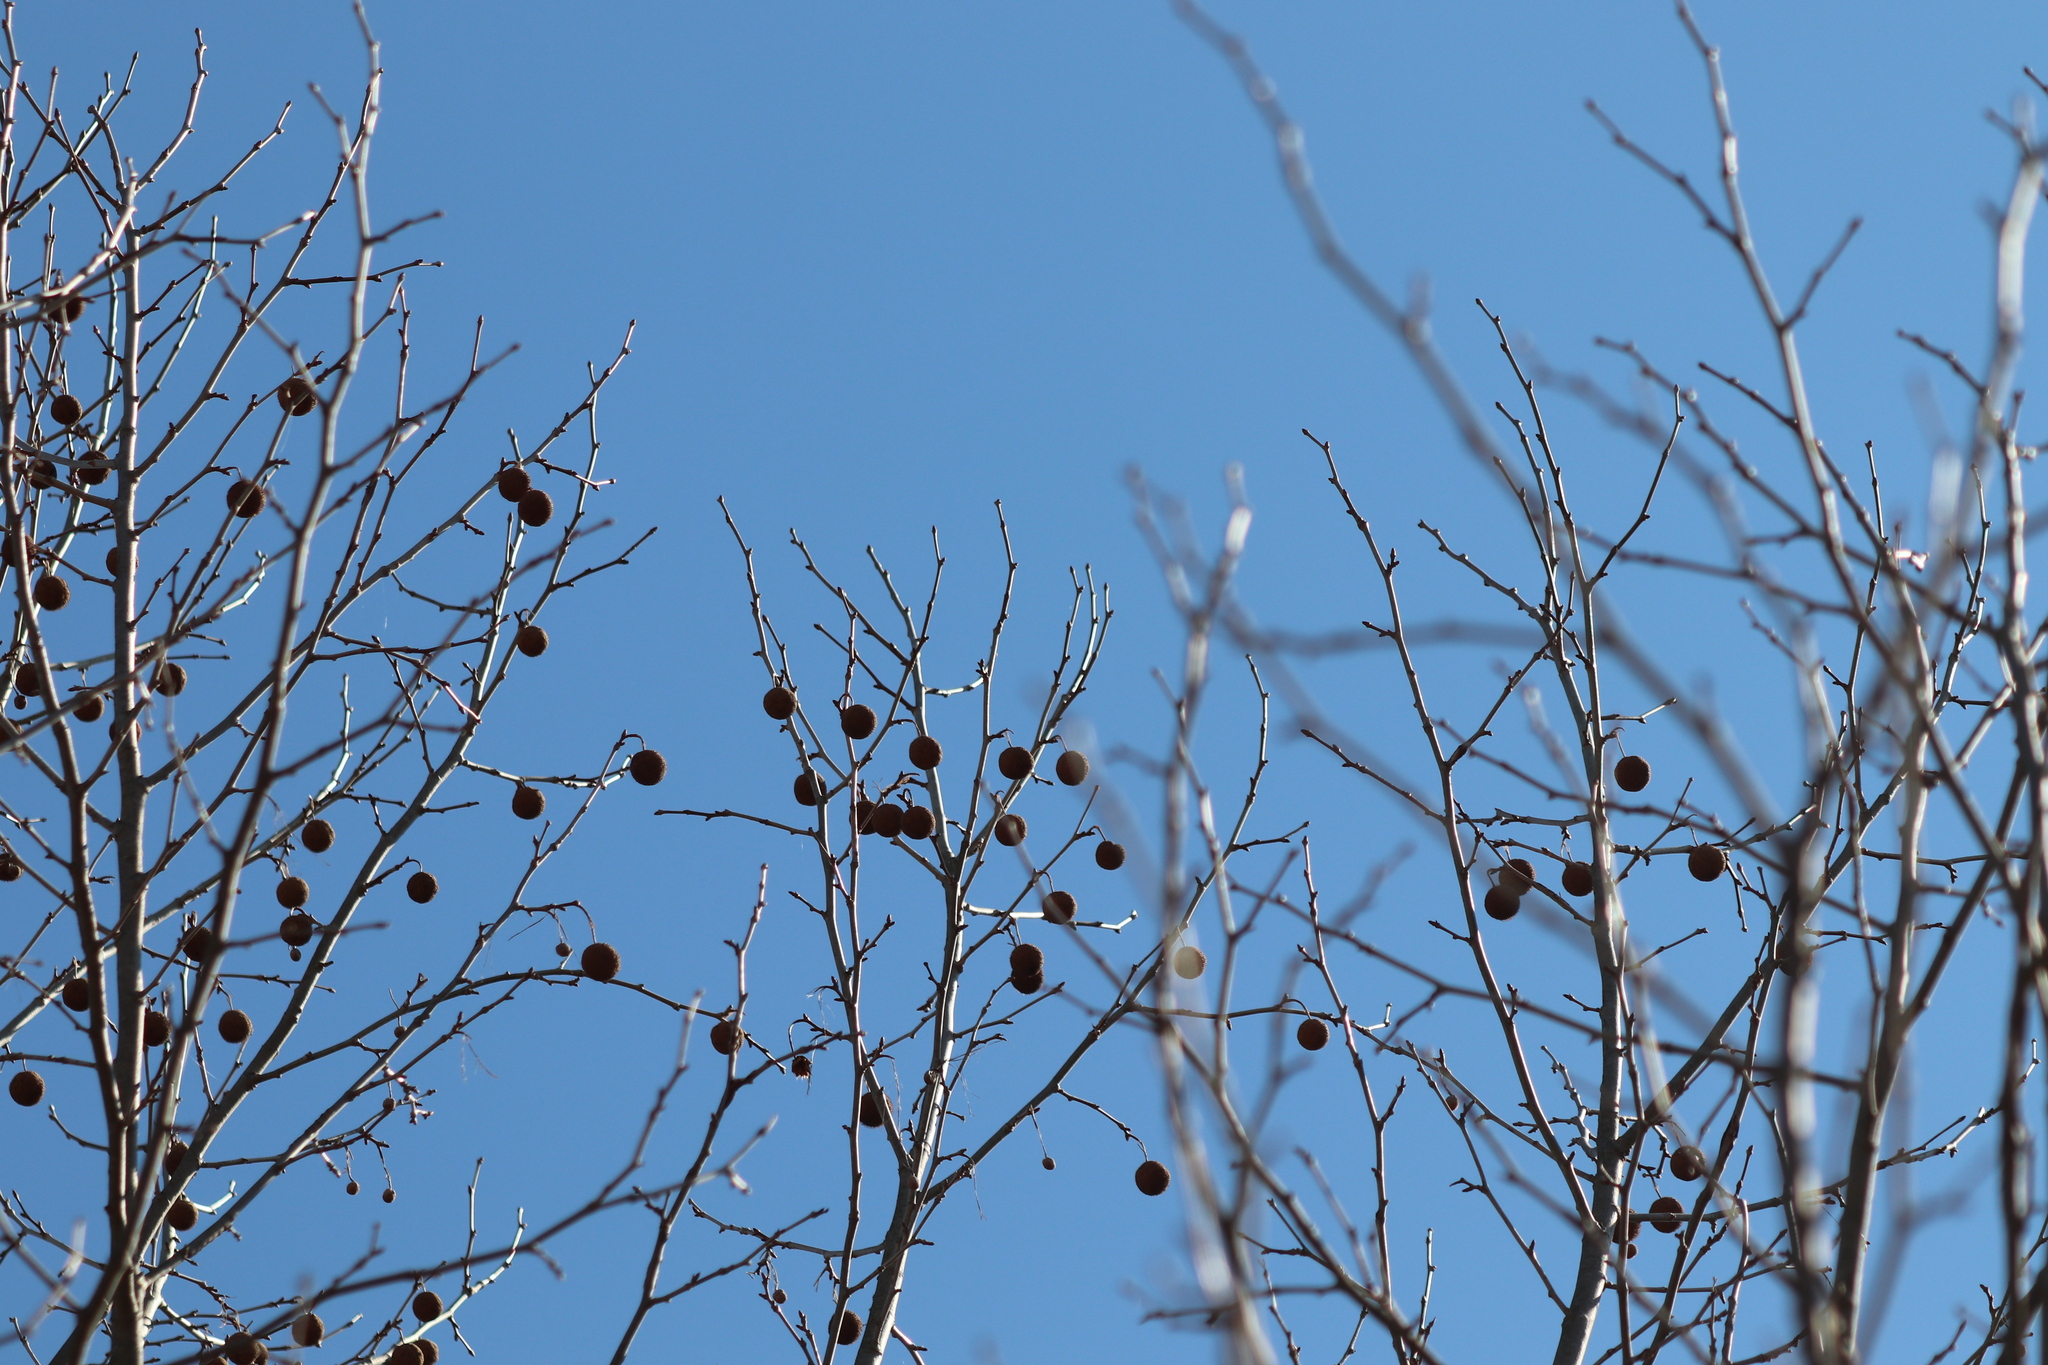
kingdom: Plantae
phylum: Tracheophyta
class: Magnoliopsida
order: Proteales
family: Platanaceae
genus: Platanus
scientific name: Platanus occidentalis
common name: American sycamore
